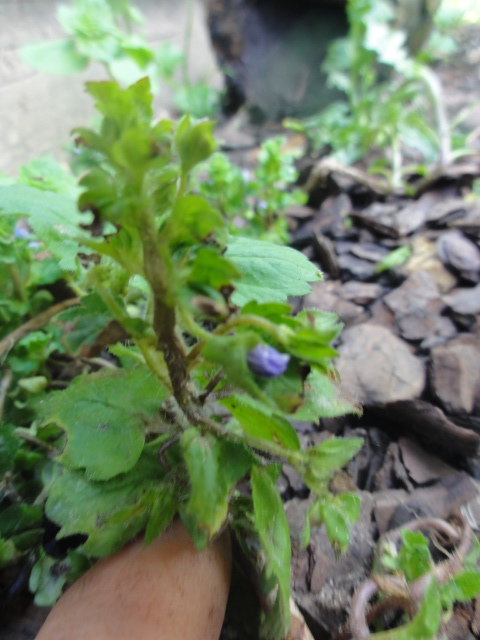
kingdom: Plantae
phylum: Tracheophyta
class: Magnoliopsida
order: Lamiales
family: Plantaginaceae
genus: Veronica
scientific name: Veronica persica
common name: Common field-speedwell
